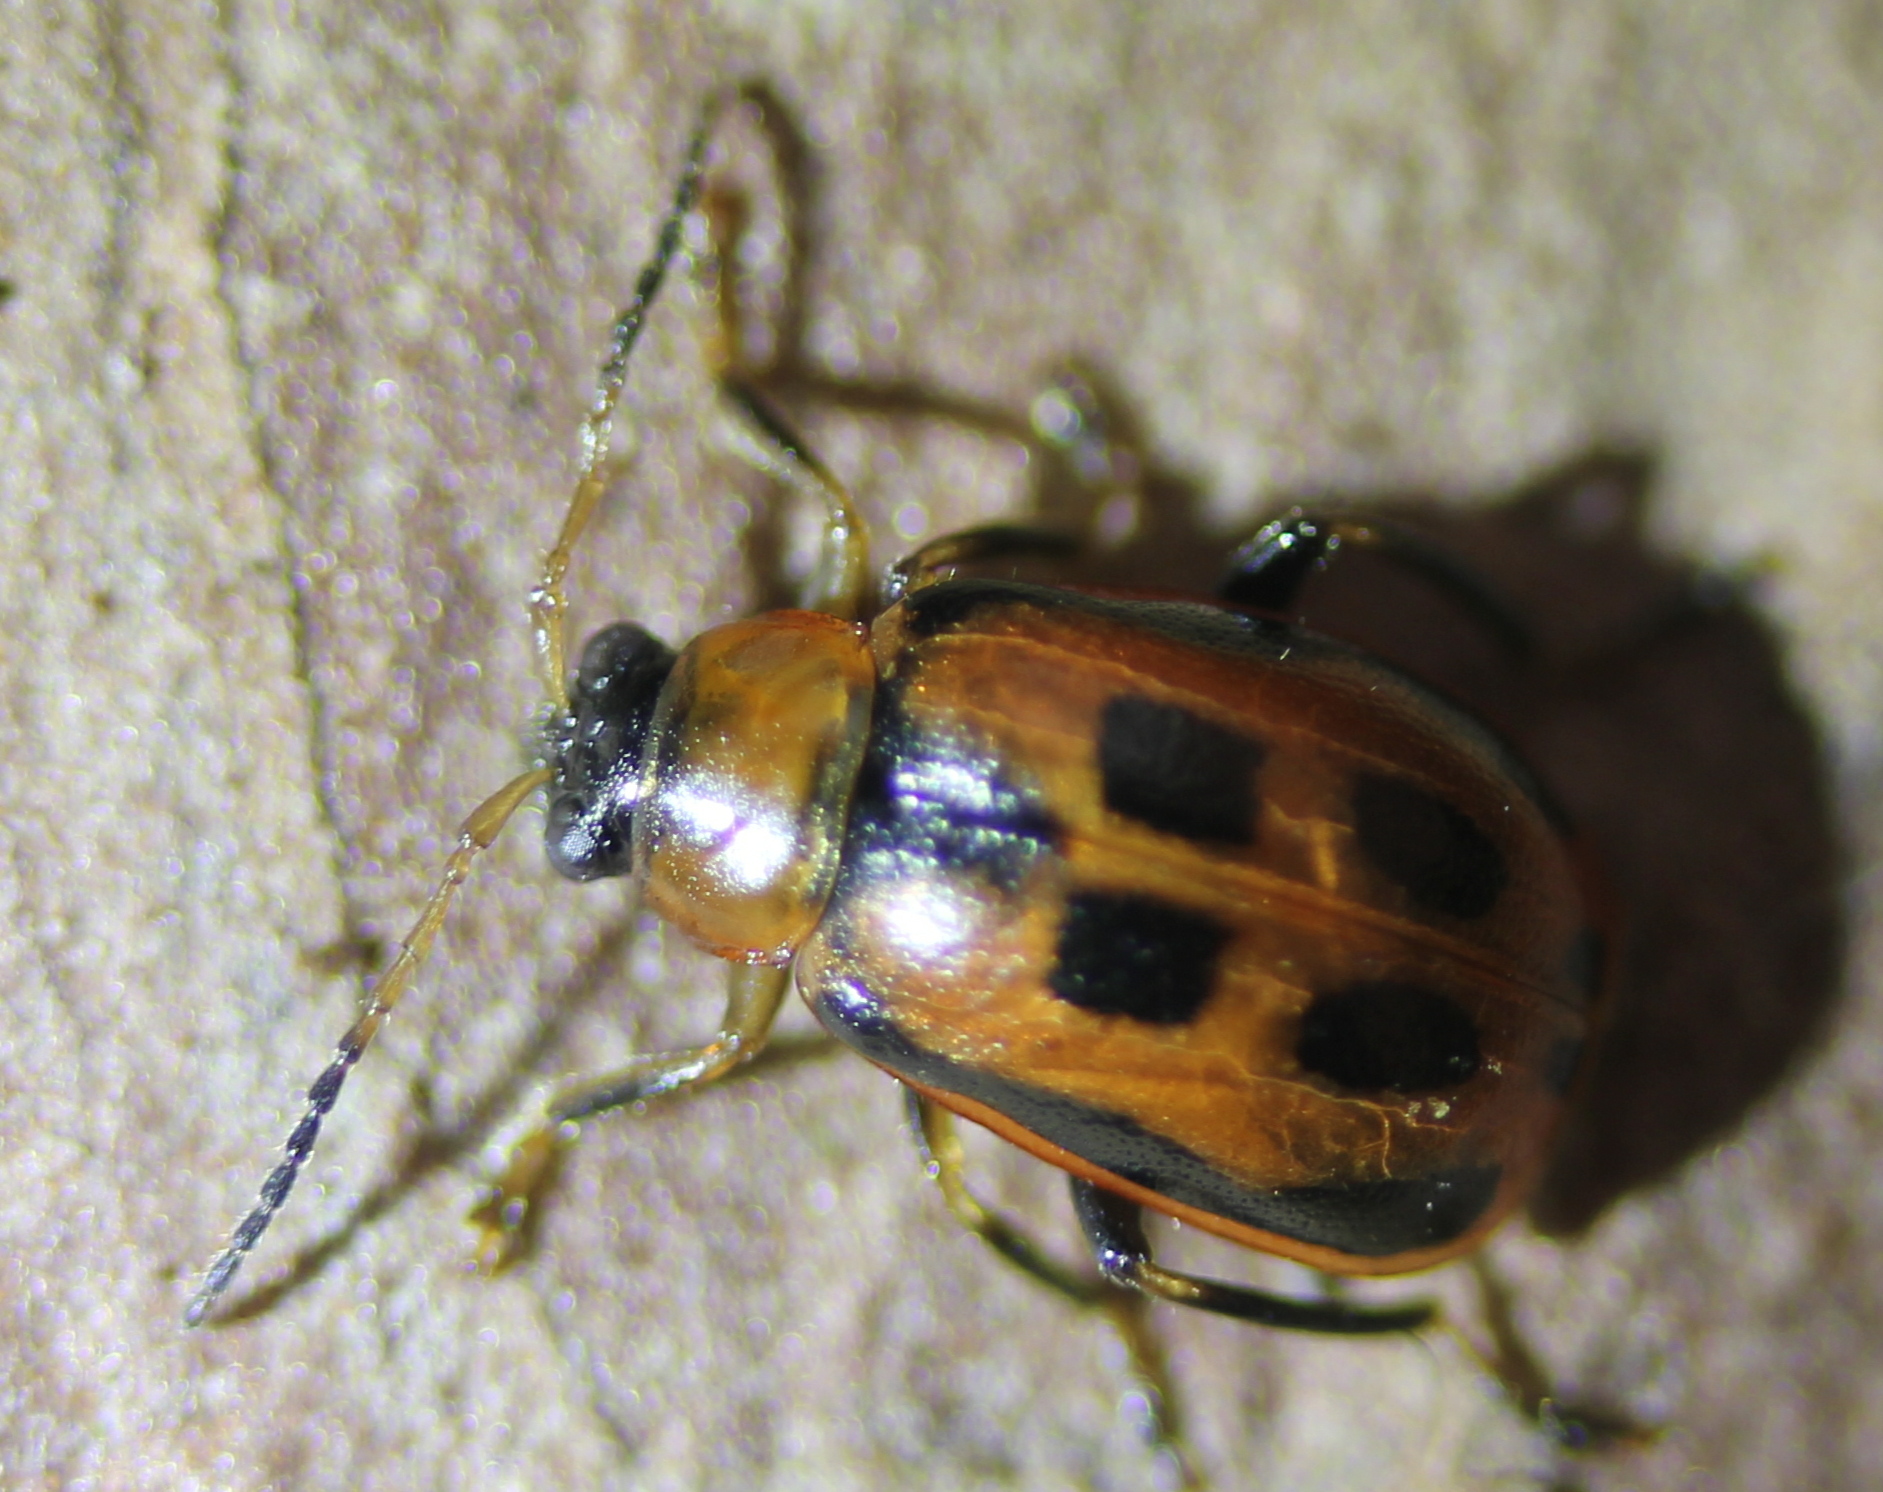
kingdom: Animalia
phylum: Arthropoda
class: Insecta
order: Coleoptera
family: Chrysomelidae
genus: Cerotoma
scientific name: Cerotoma trifurcata
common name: Bean leaf beetle
